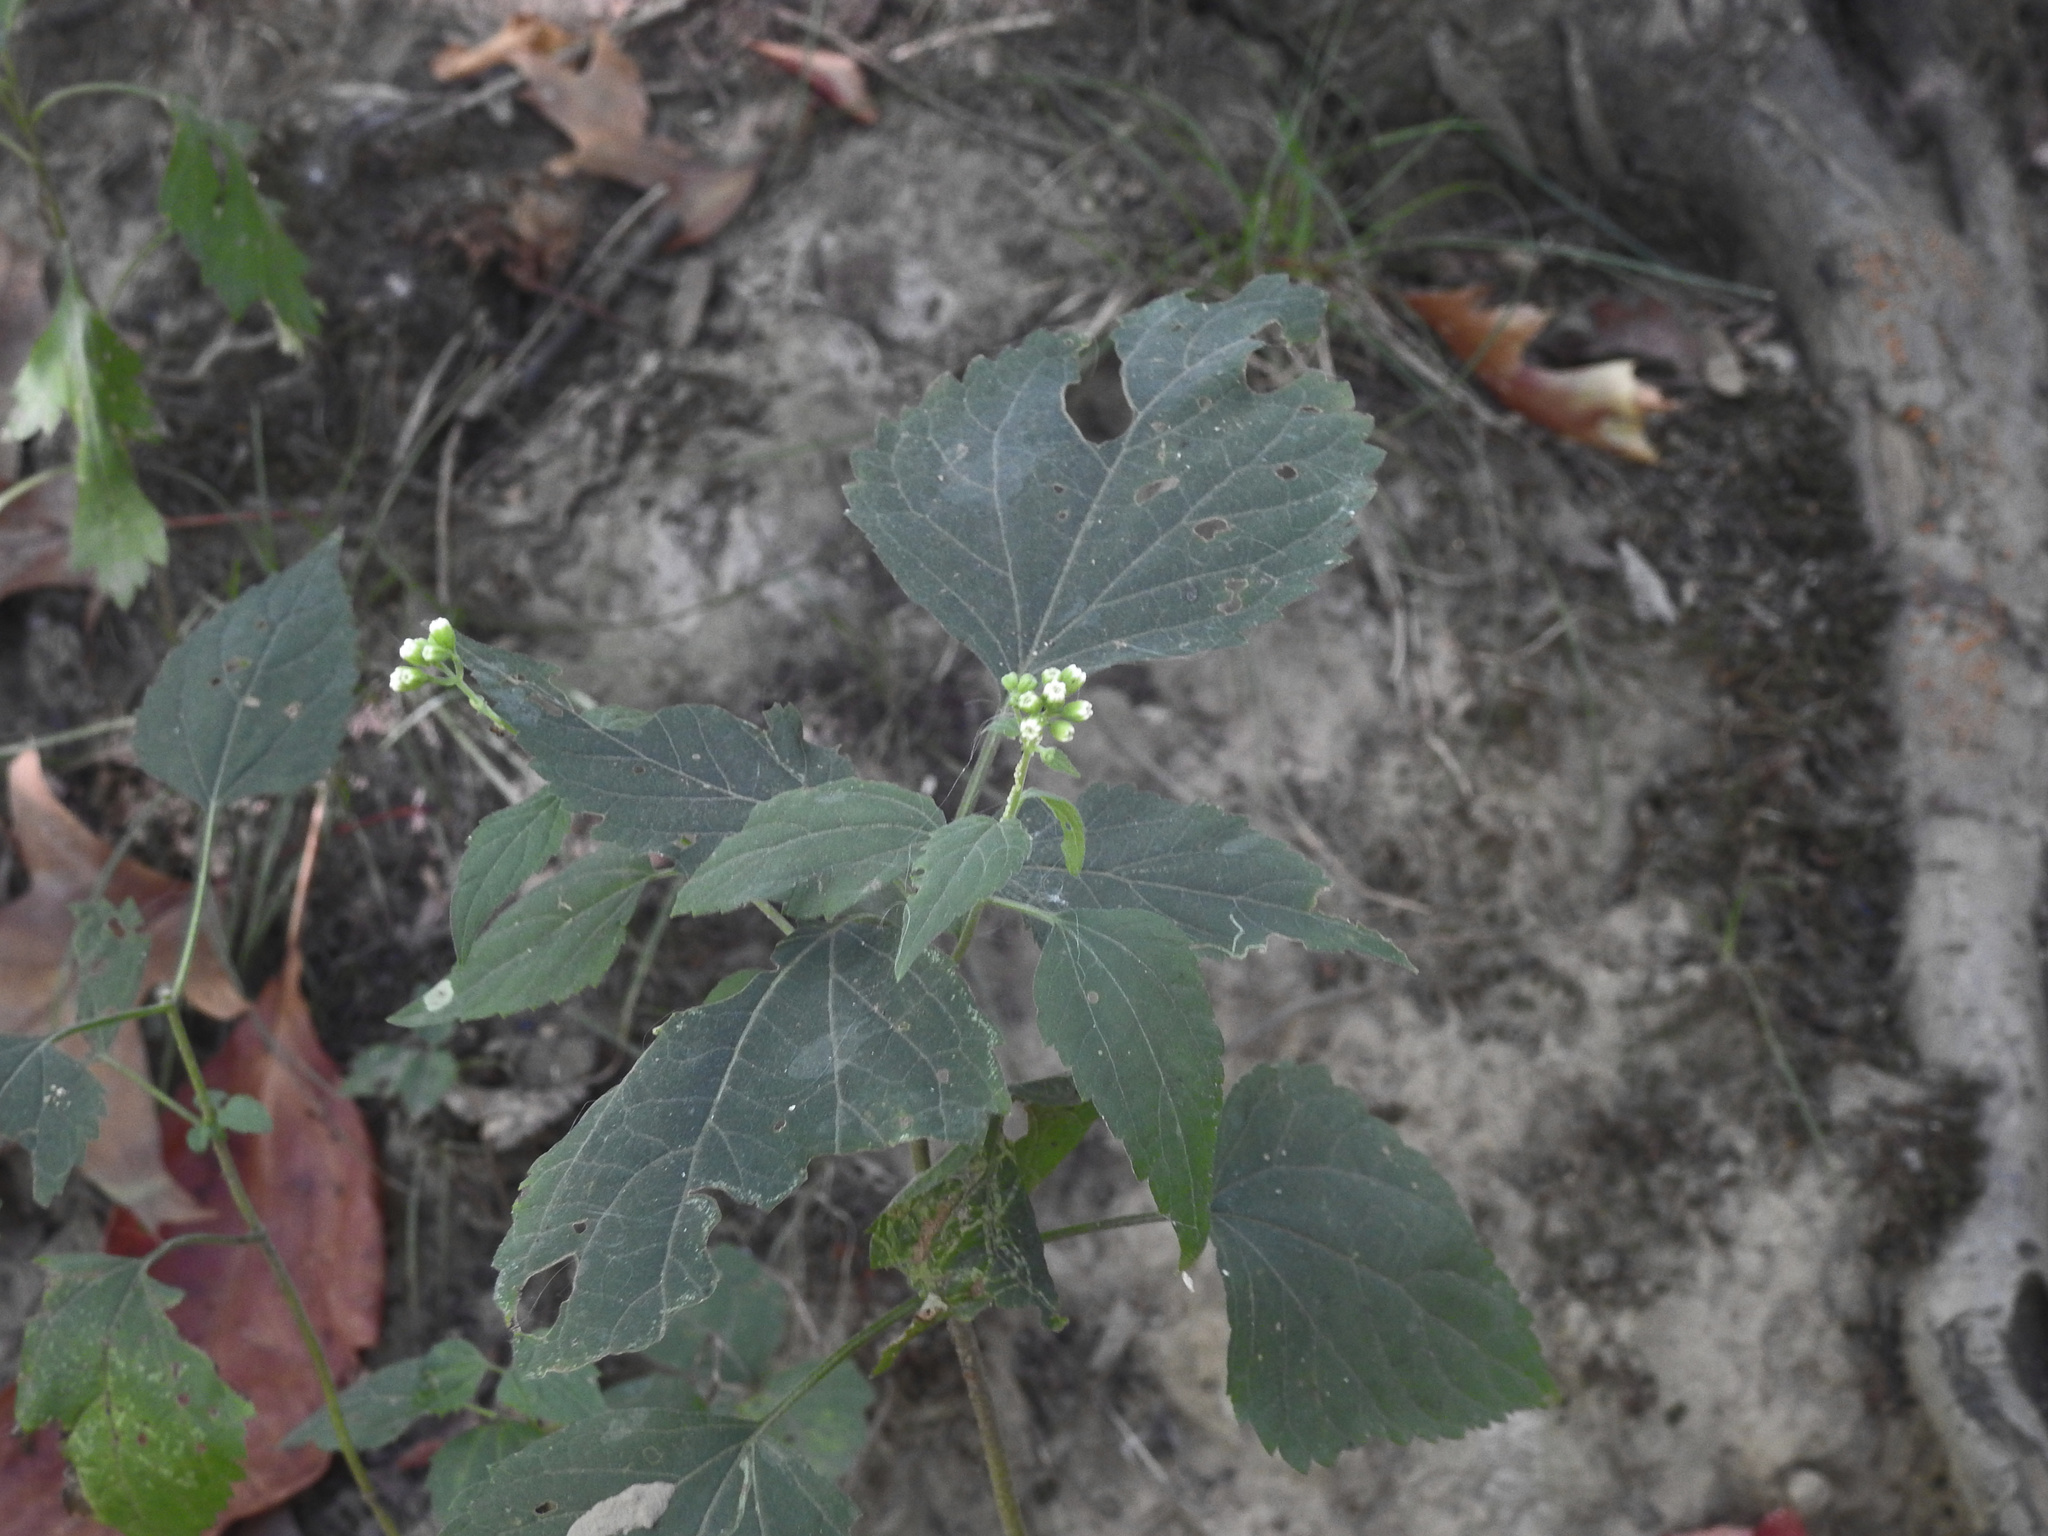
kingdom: Plantae
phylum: Tracheophyta
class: Magnoliopsida
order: Asterales
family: Asteraceae
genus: Ageratina
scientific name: Ageratina altissima
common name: White snakeroot
